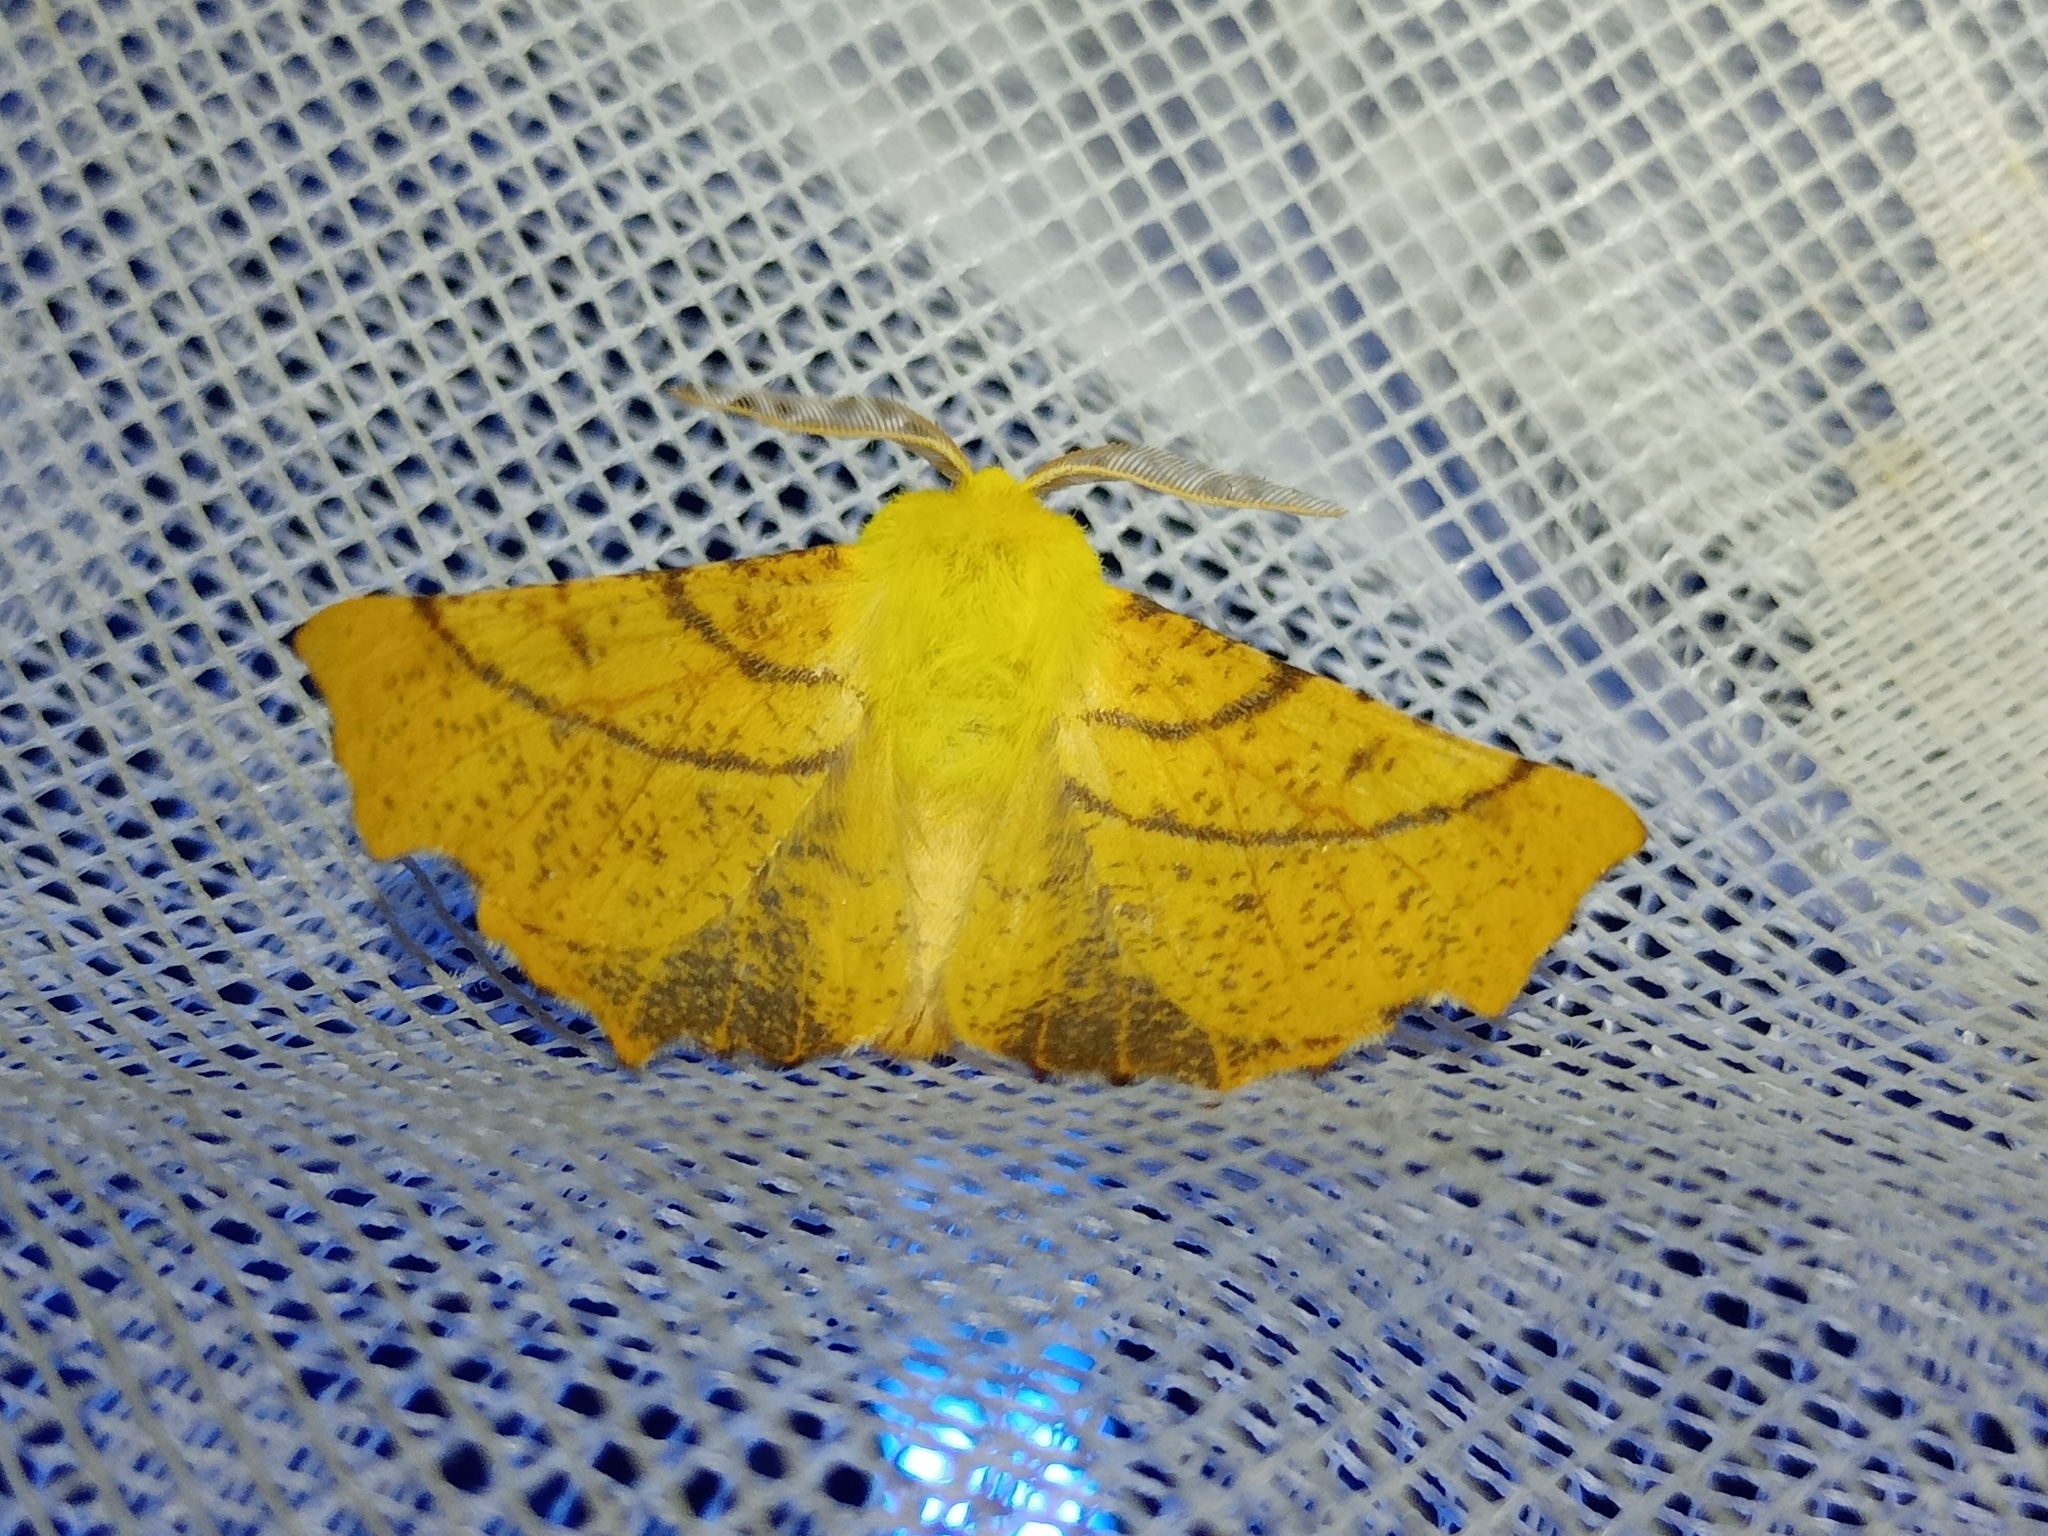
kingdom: Animalia
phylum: Arthropoda
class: Insecta
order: Lepidoptera
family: Geometridae
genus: Ennomos
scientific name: Ennomos alniaria
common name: Canary-shouldered thorn
